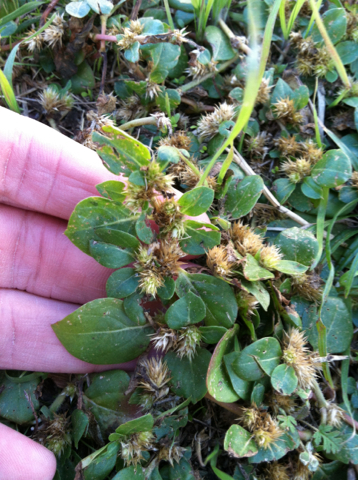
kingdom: Plantae
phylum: Tracheophyta
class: Magnoliopsida
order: Caryophyllales
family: Amaranthaceae
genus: Alternanthera
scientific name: Alternanthera pungens
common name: Khakiweed
